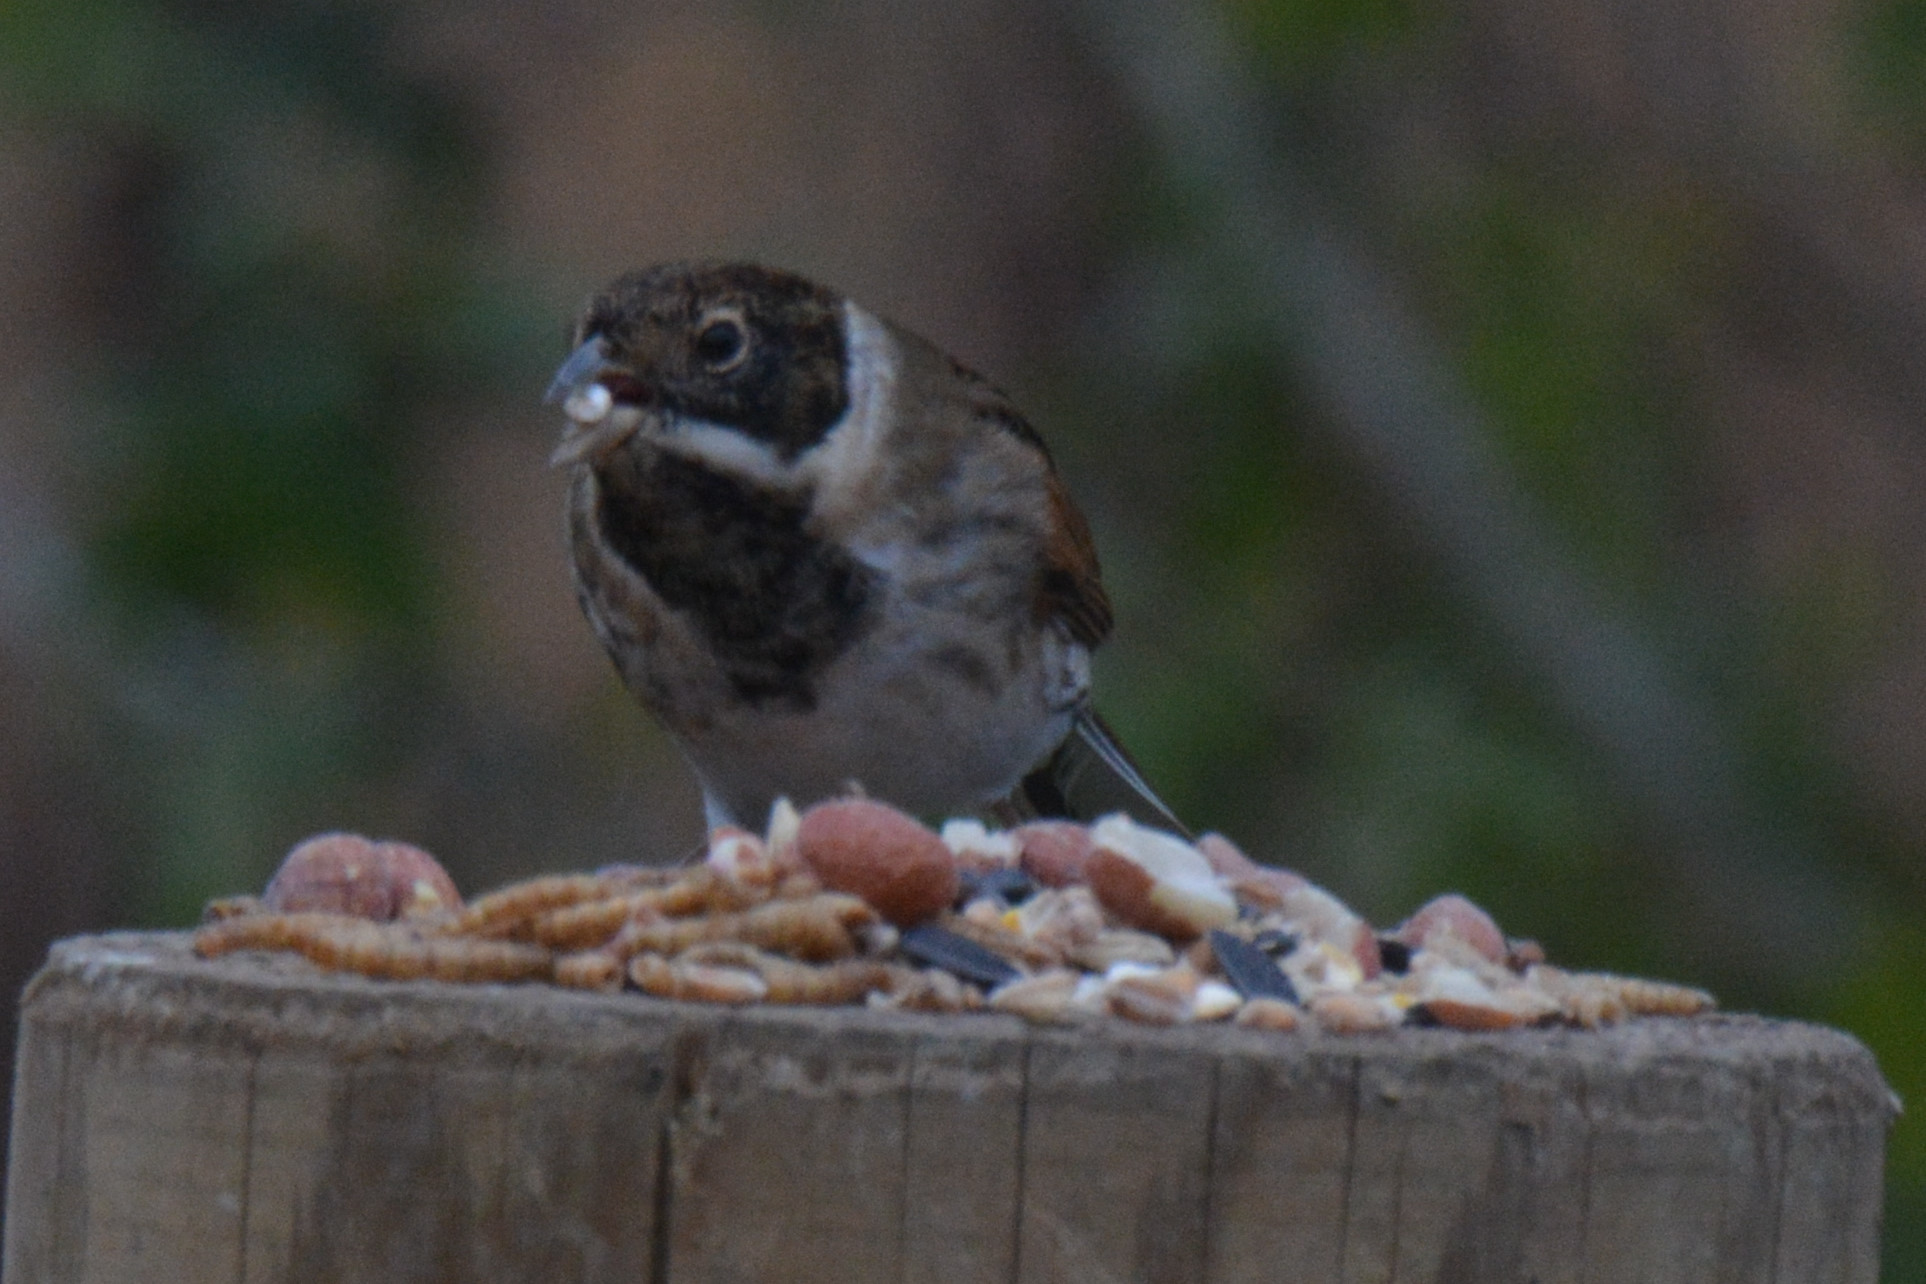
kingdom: Animalia
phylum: Chordata
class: Aves
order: Passeriformes
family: Emberizidae
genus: Emberiza
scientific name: Emberiza schoeniclus
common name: Reed bunting
